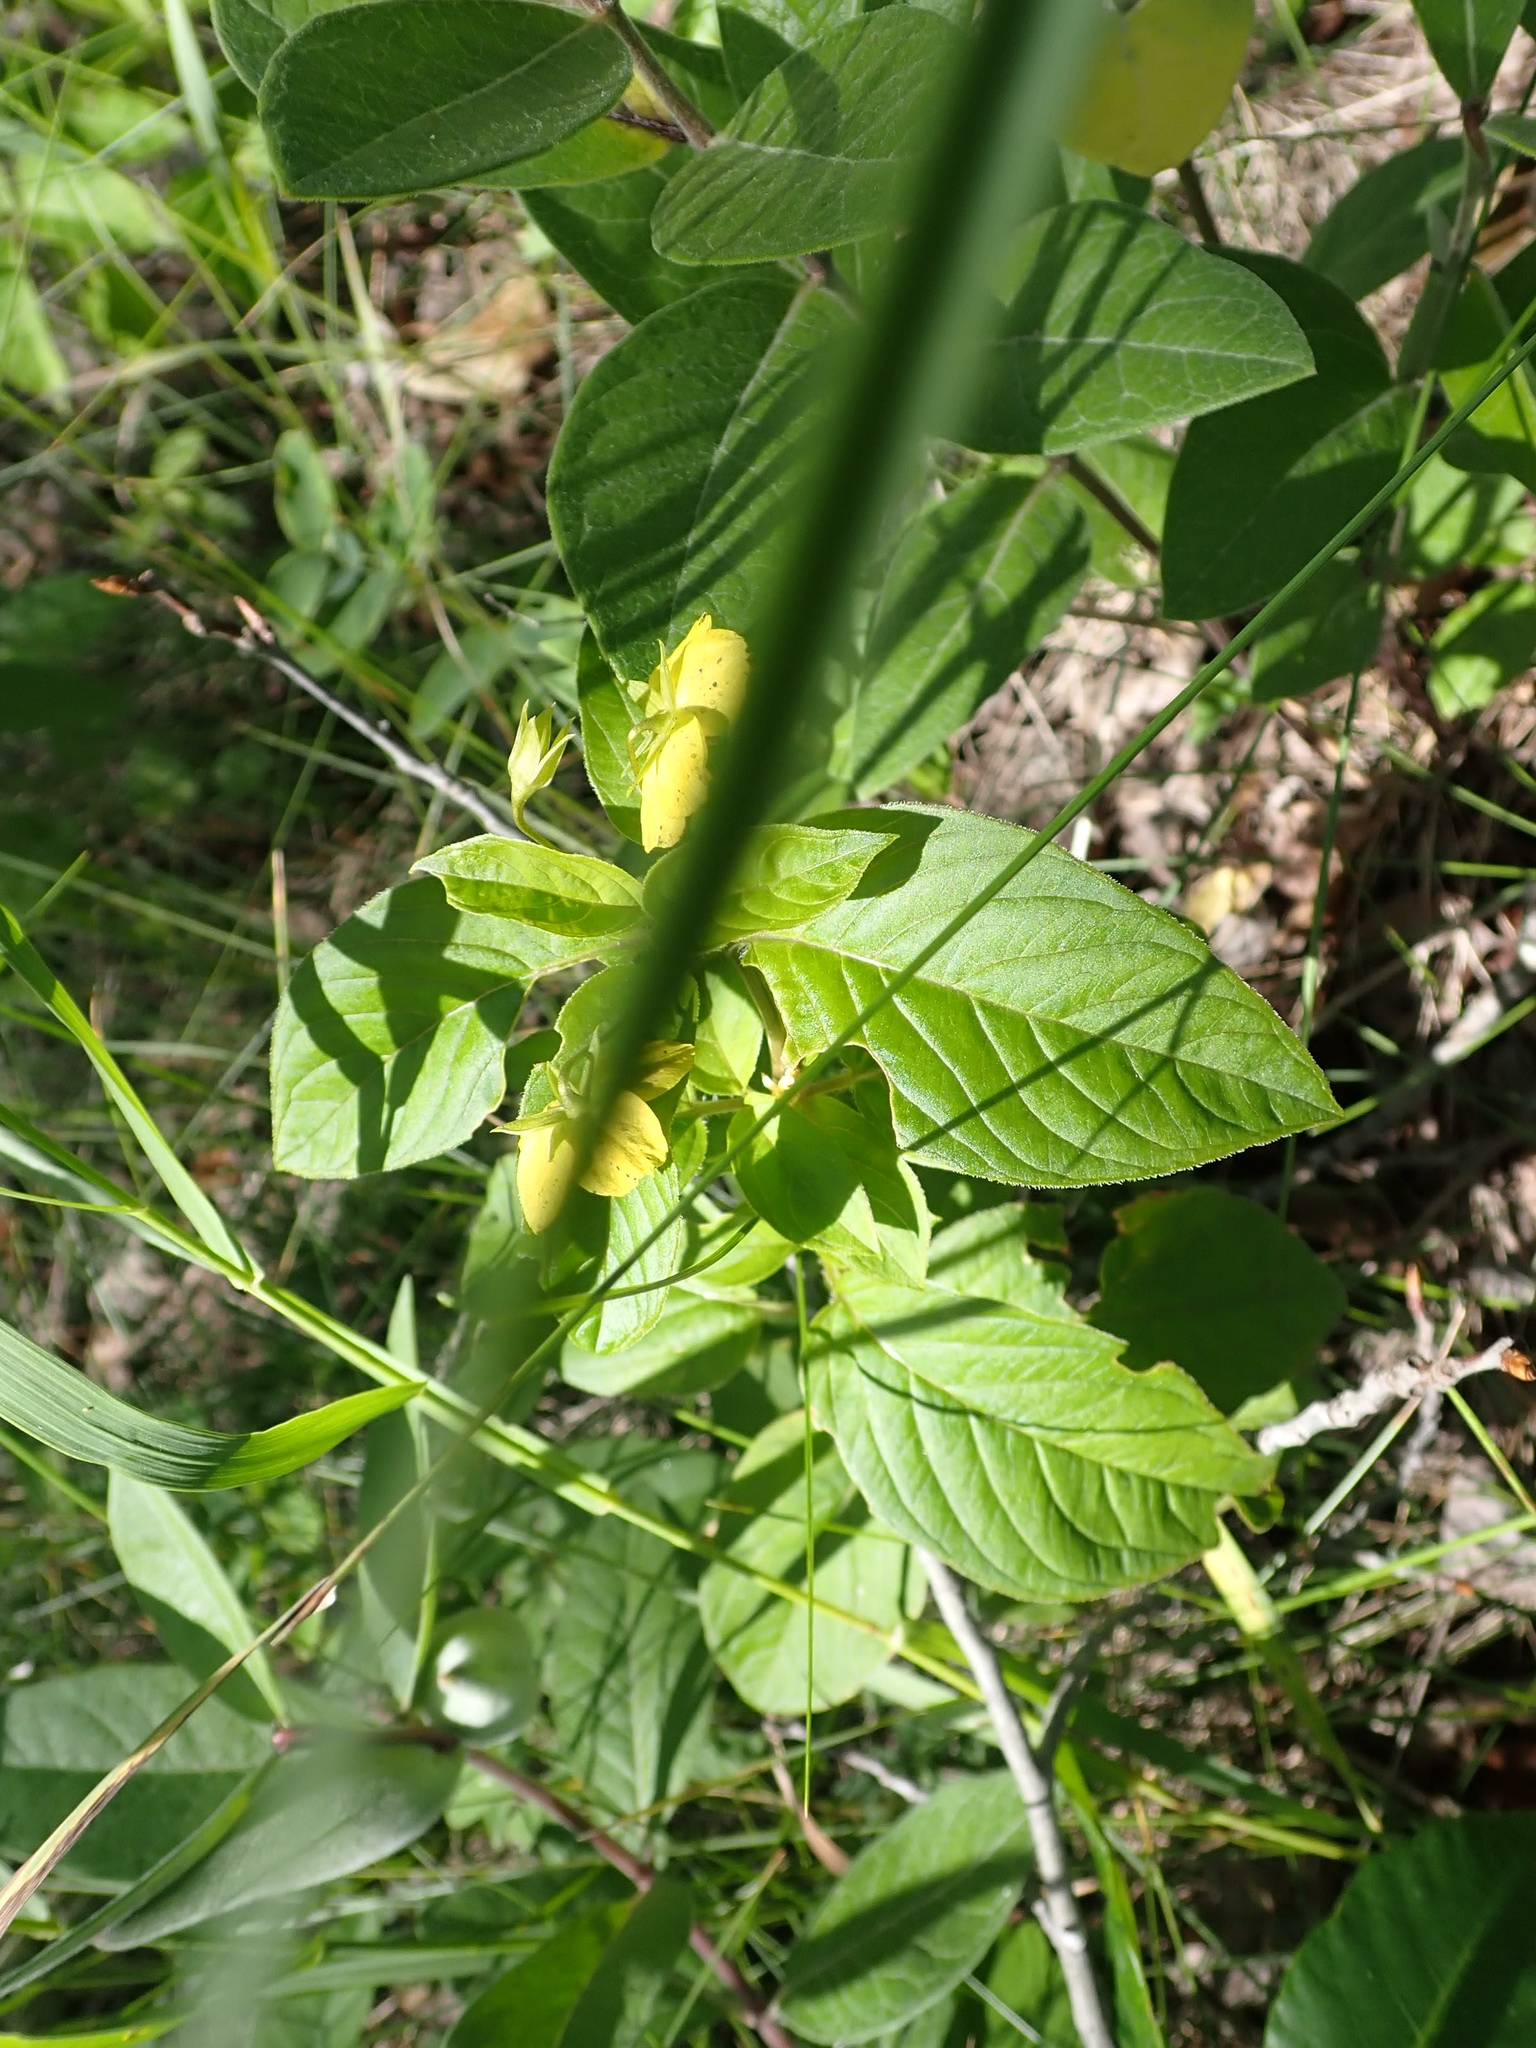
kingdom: Plantae
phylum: Tracheophyta
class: Magnoliopsida
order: Ericales
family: Primulaceae
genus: Lysimachia
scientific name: Lysimachia ciliata
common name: Fringed loosestrife
